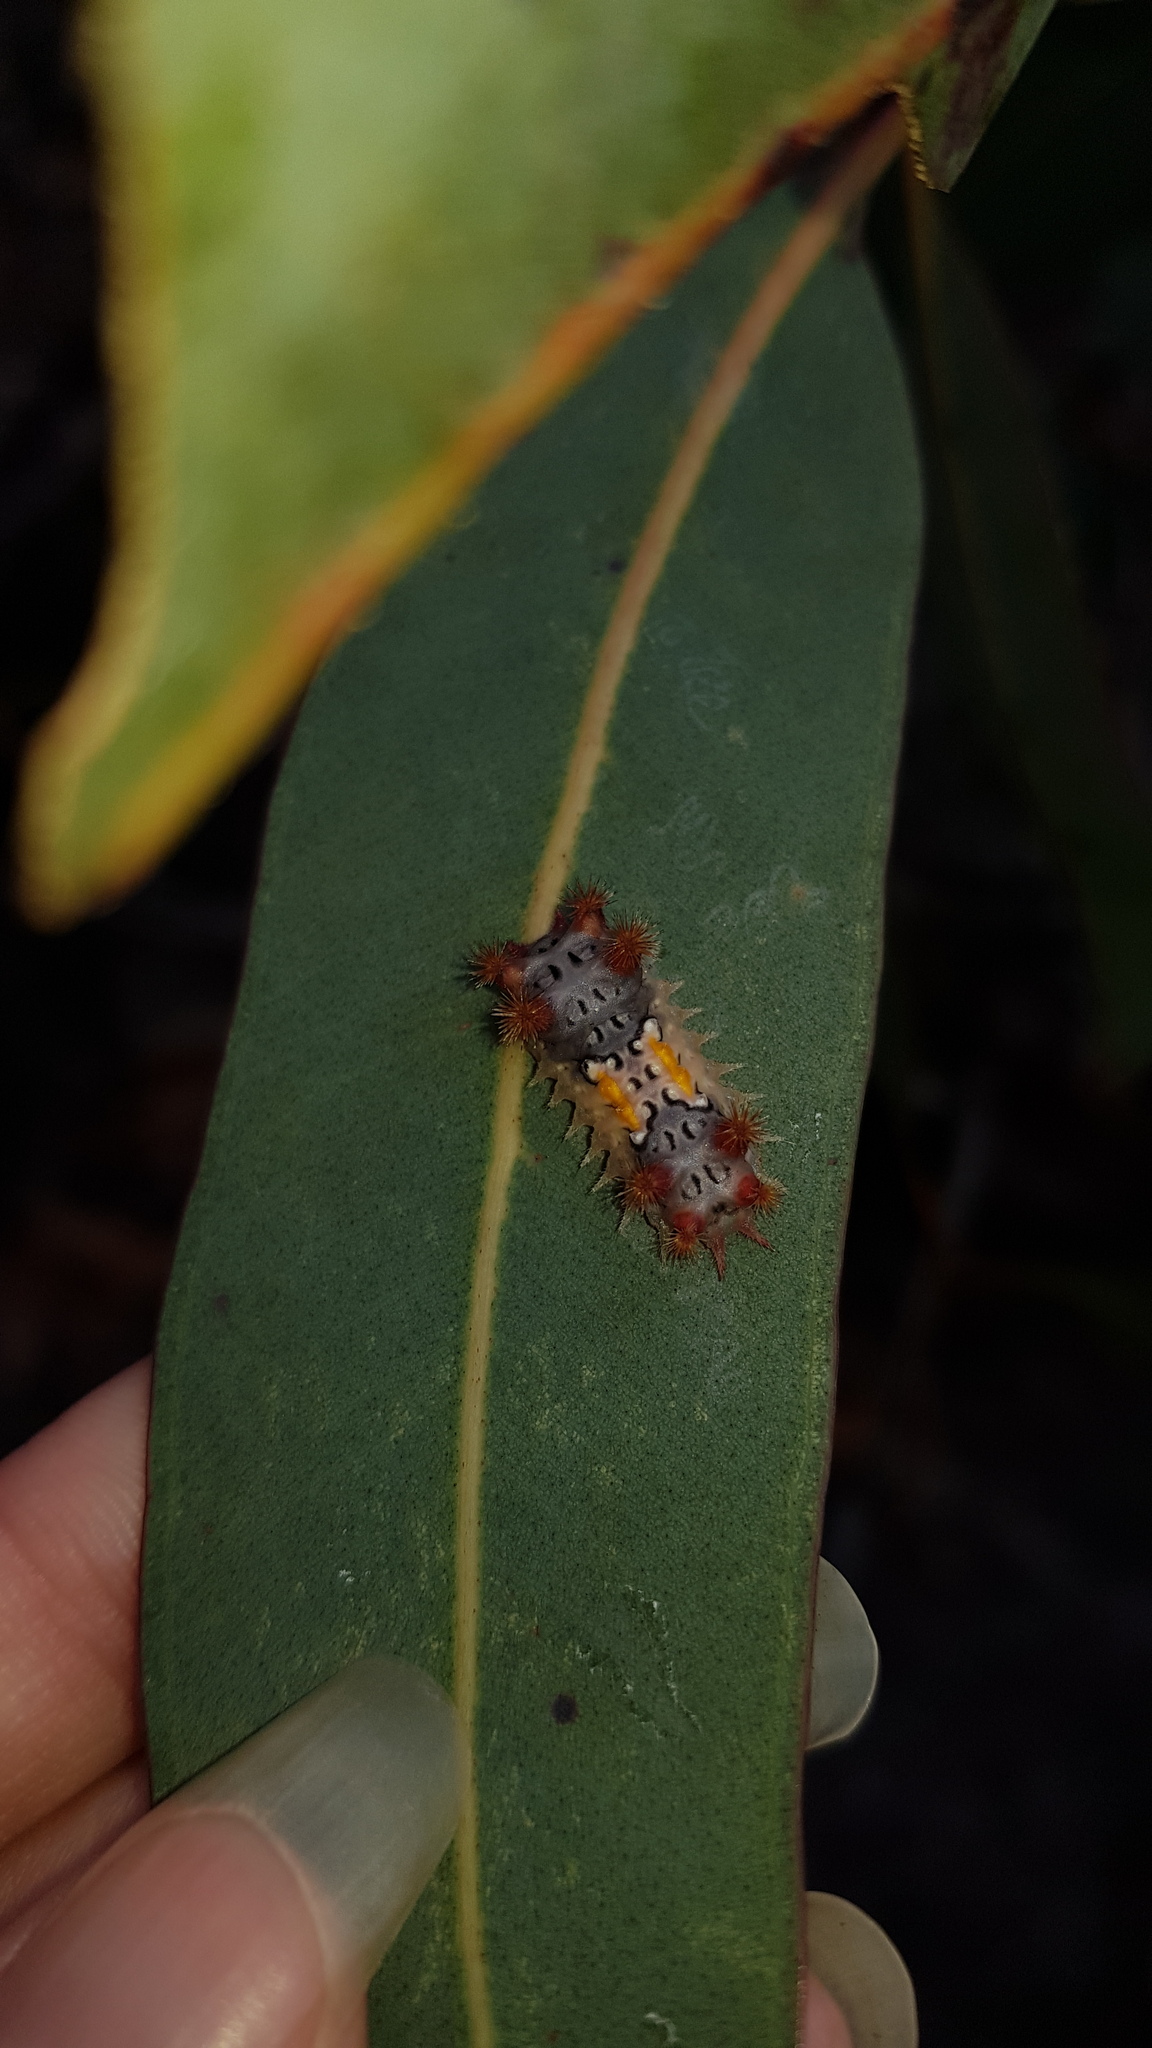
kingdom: Animalia
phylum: Arthropoda
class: Insecta
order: Lepidoptera
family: Limacodidae
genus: Doratifera
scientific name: Doratifera vulnerans
